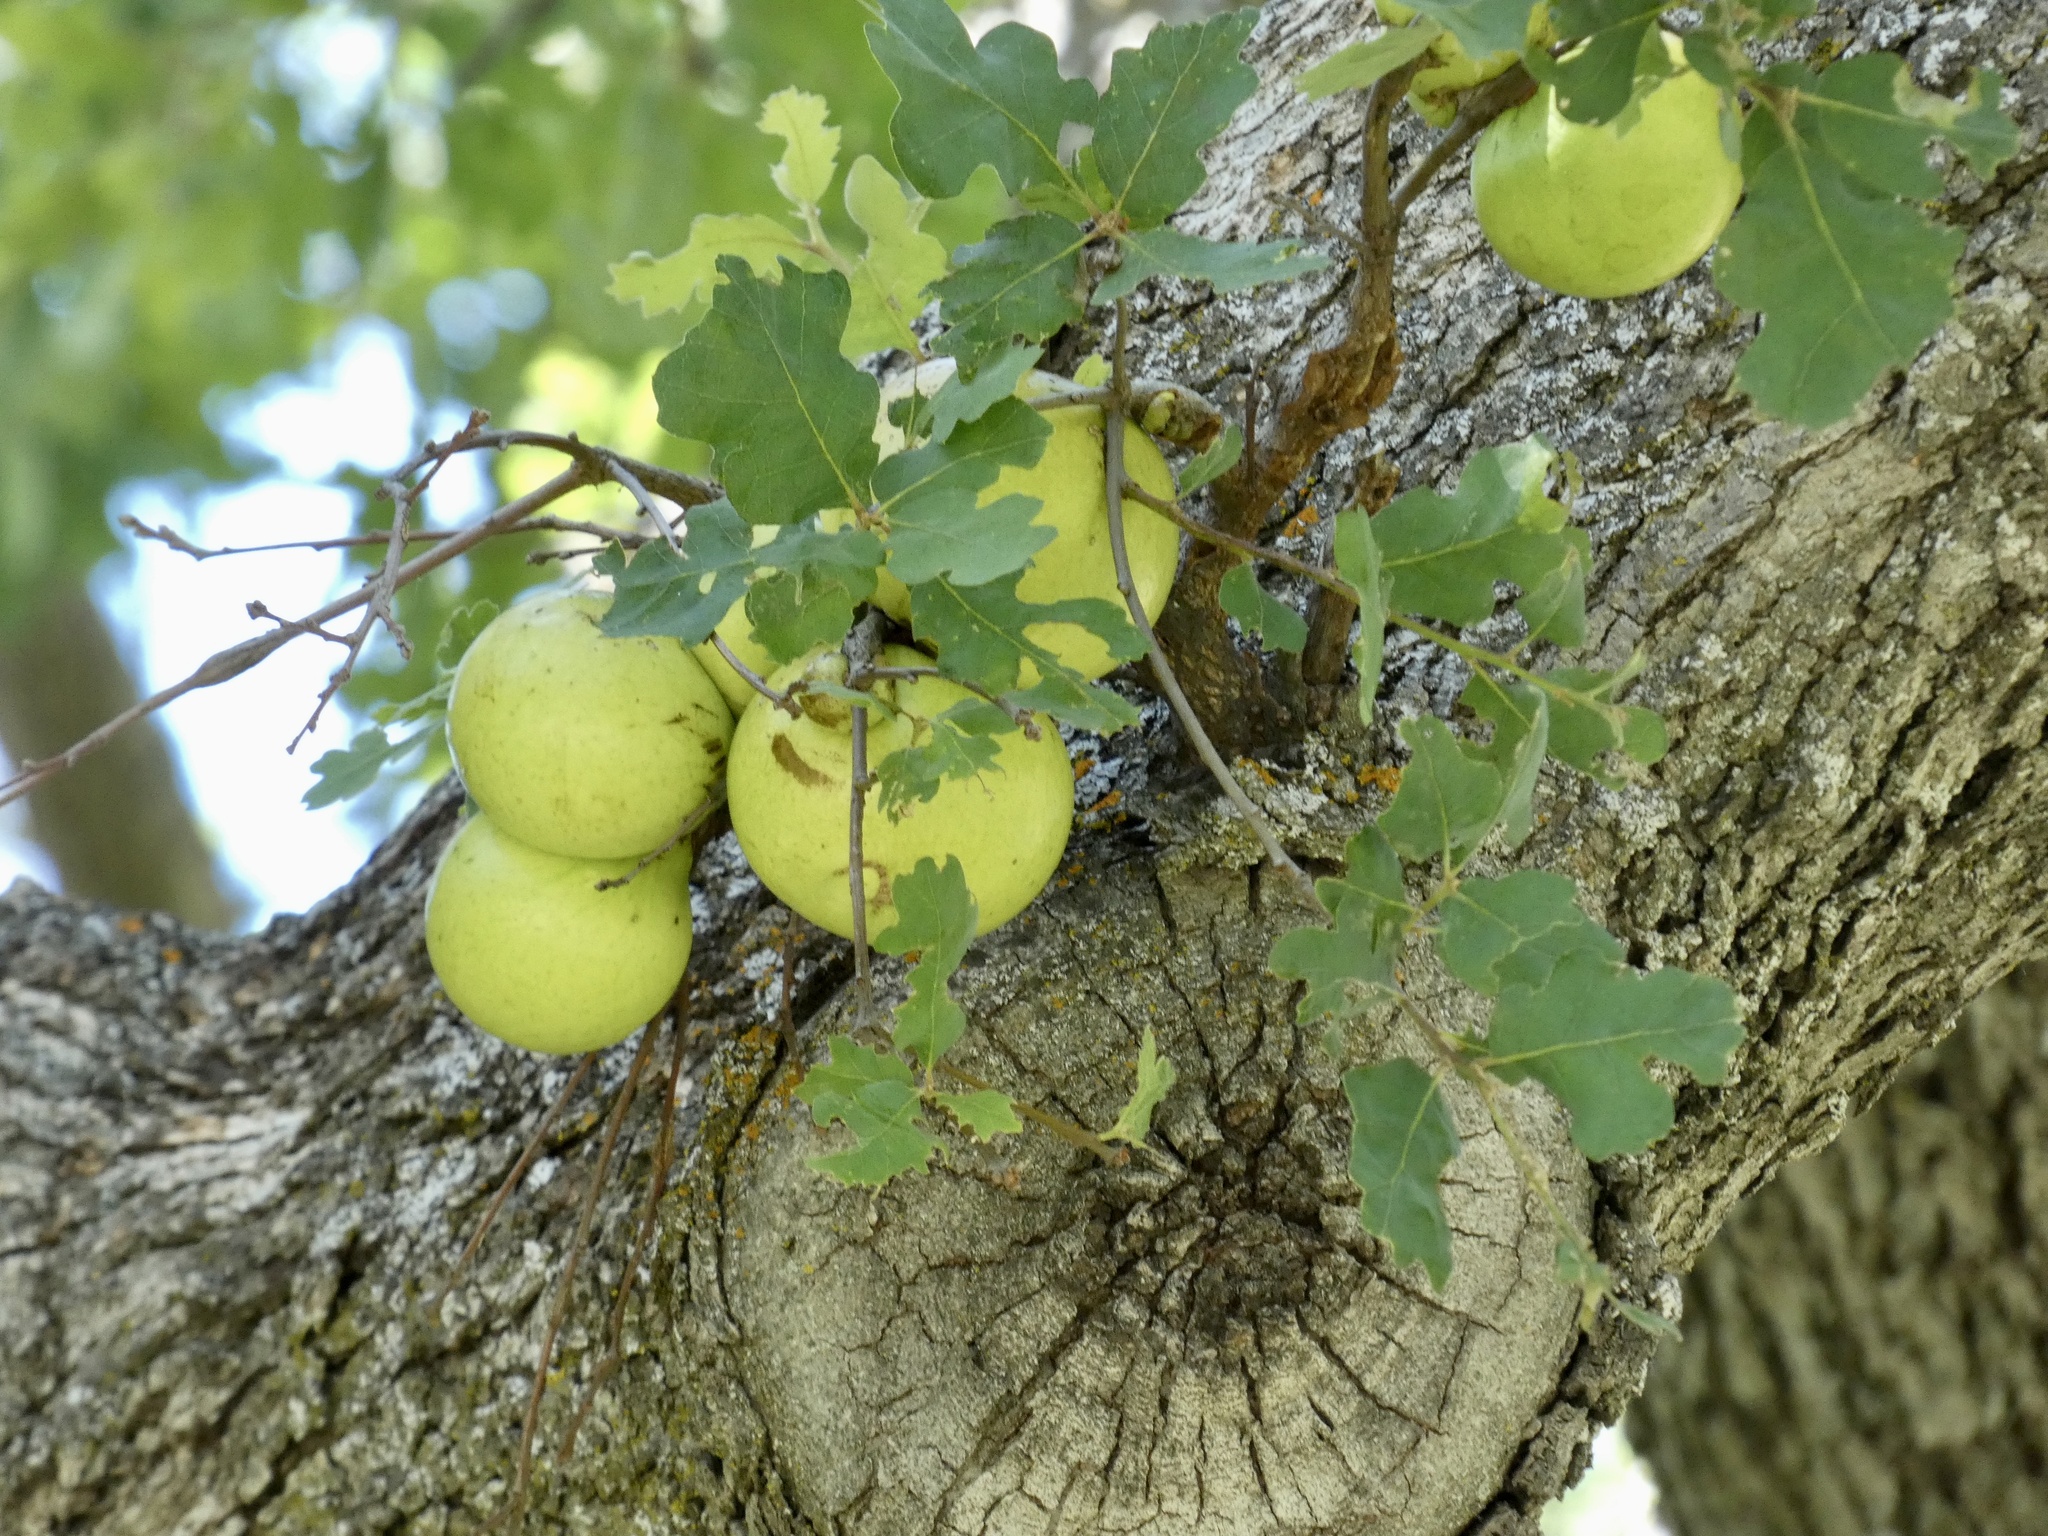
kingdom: Animalia
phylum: Arthropoda
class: Insecta
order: Hymenoptera
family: Cynipidae
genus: Andricus
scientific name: Andricus quercuscalifornicus
